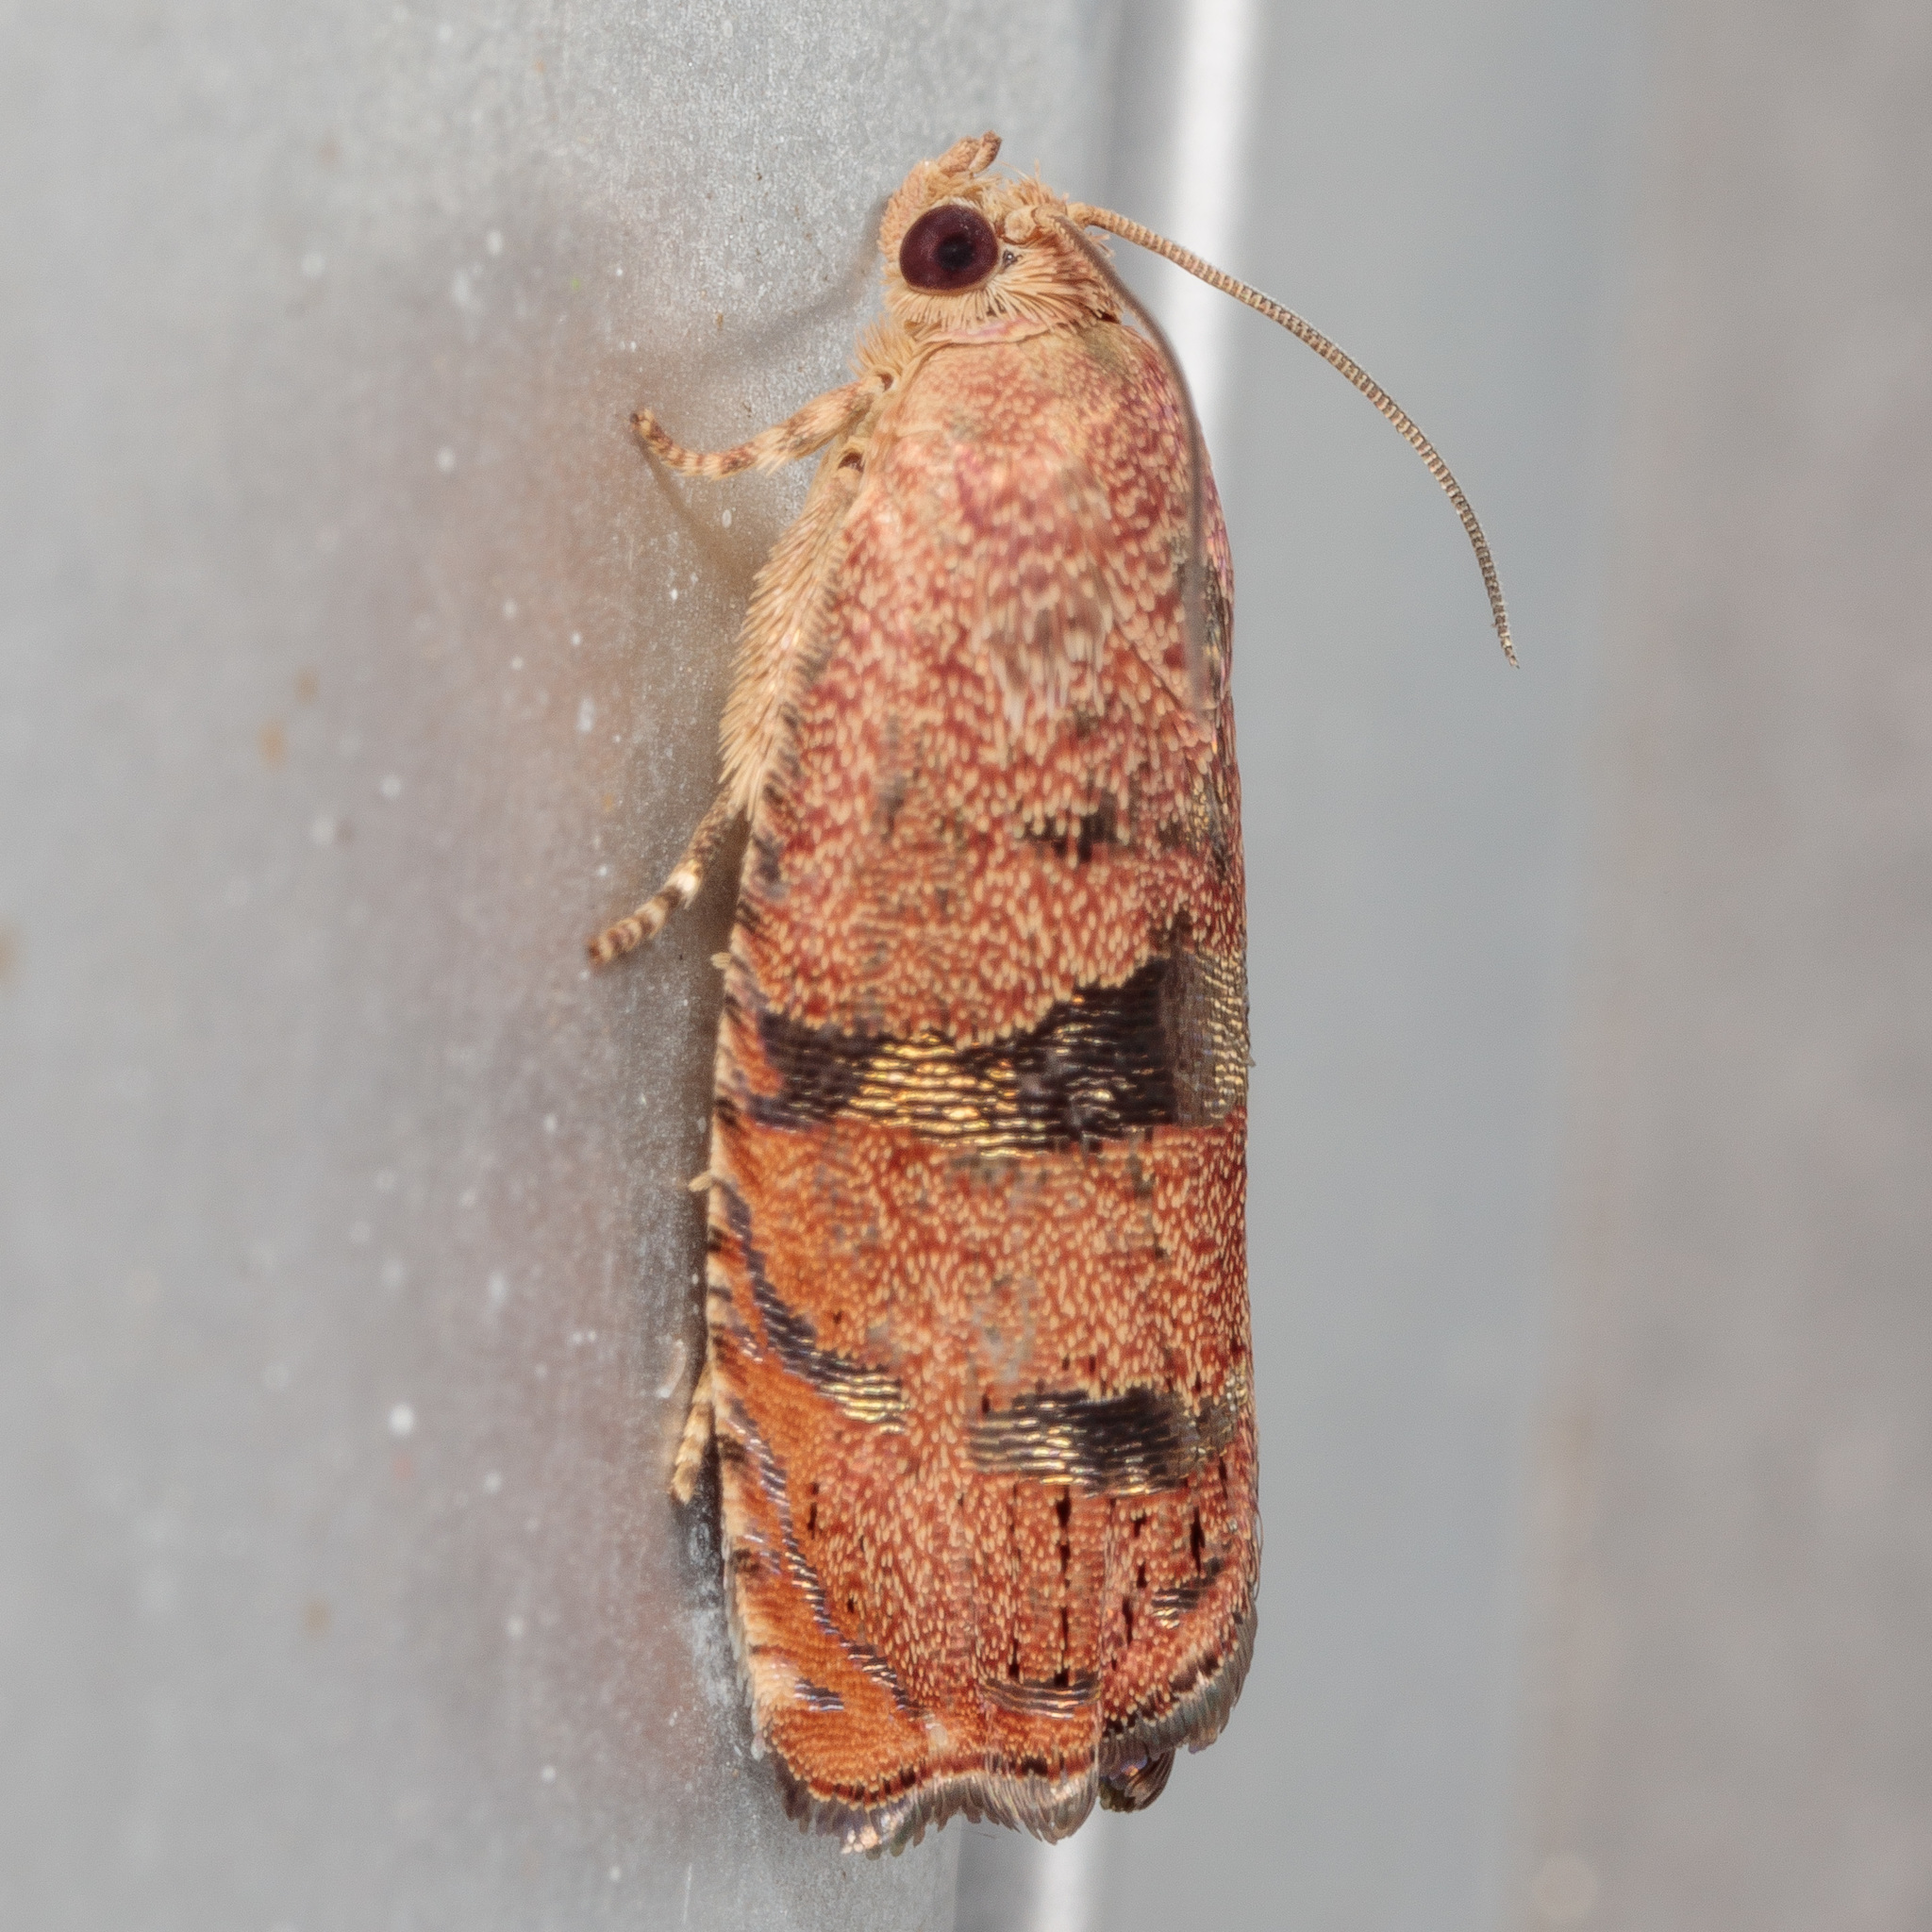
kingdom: Animalia
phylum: Arthropoda
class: Insecta
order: Lepidoptera
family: Tortricidae
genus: Cydia
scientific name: Cydia latiferreana
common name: Filbertworm moth
